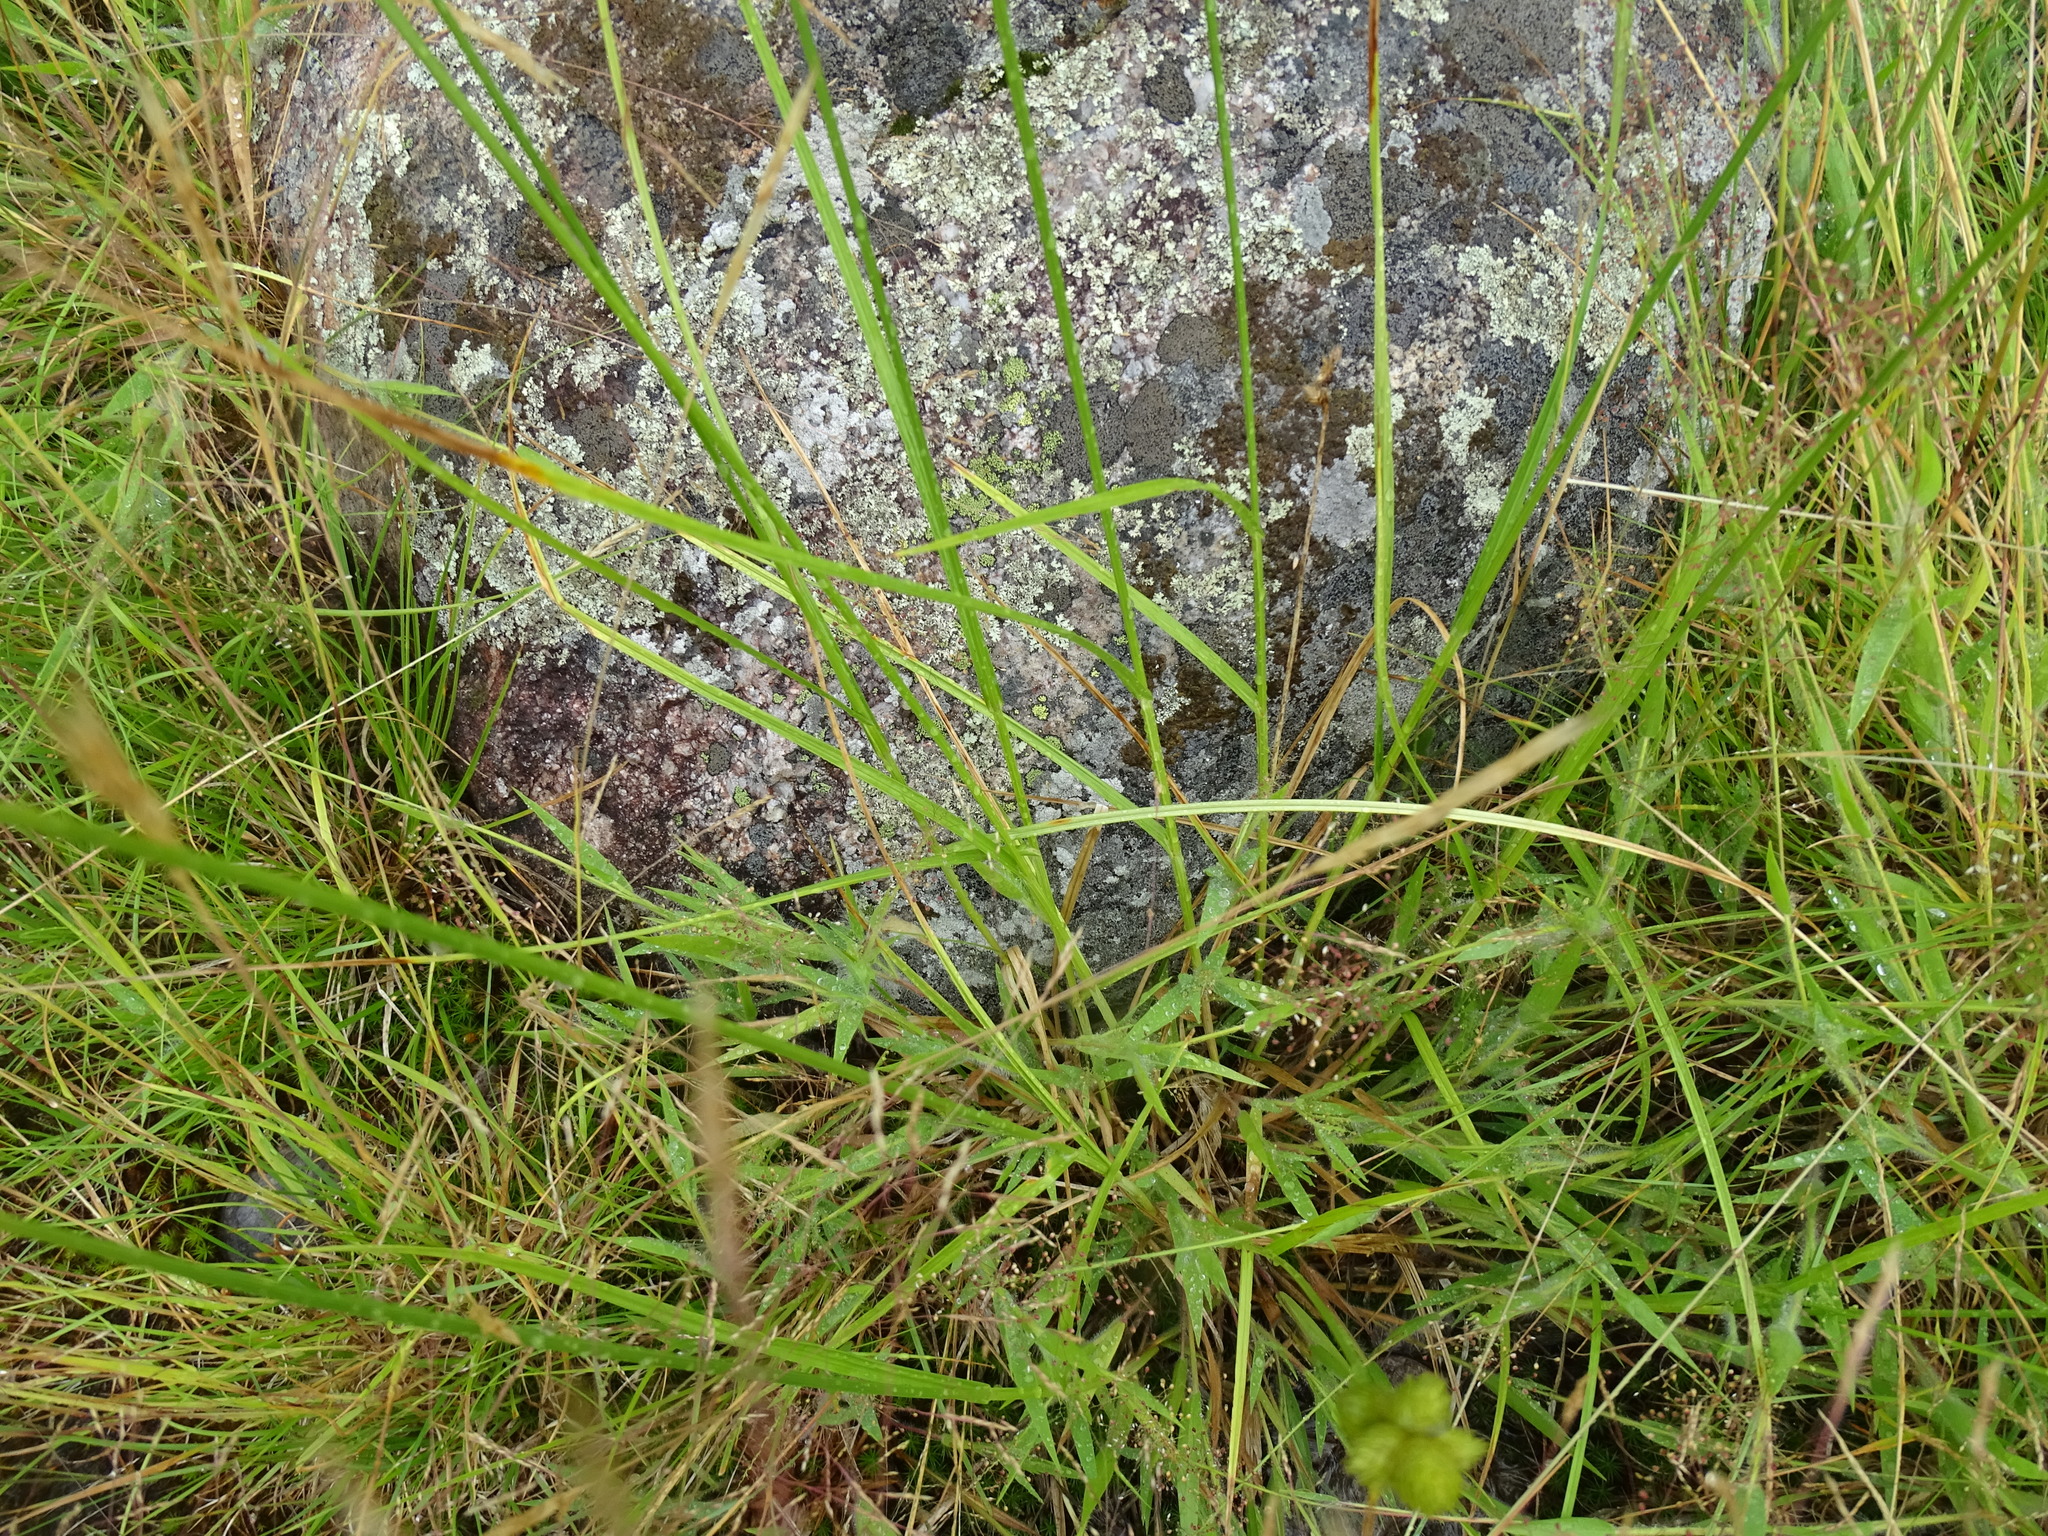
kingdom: Plantae
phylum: Tracheophyta
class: Liliopsida
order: Poales
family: Cyperaceae
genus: Carex
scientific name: Carex cumulata
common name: Accumulating sedge
